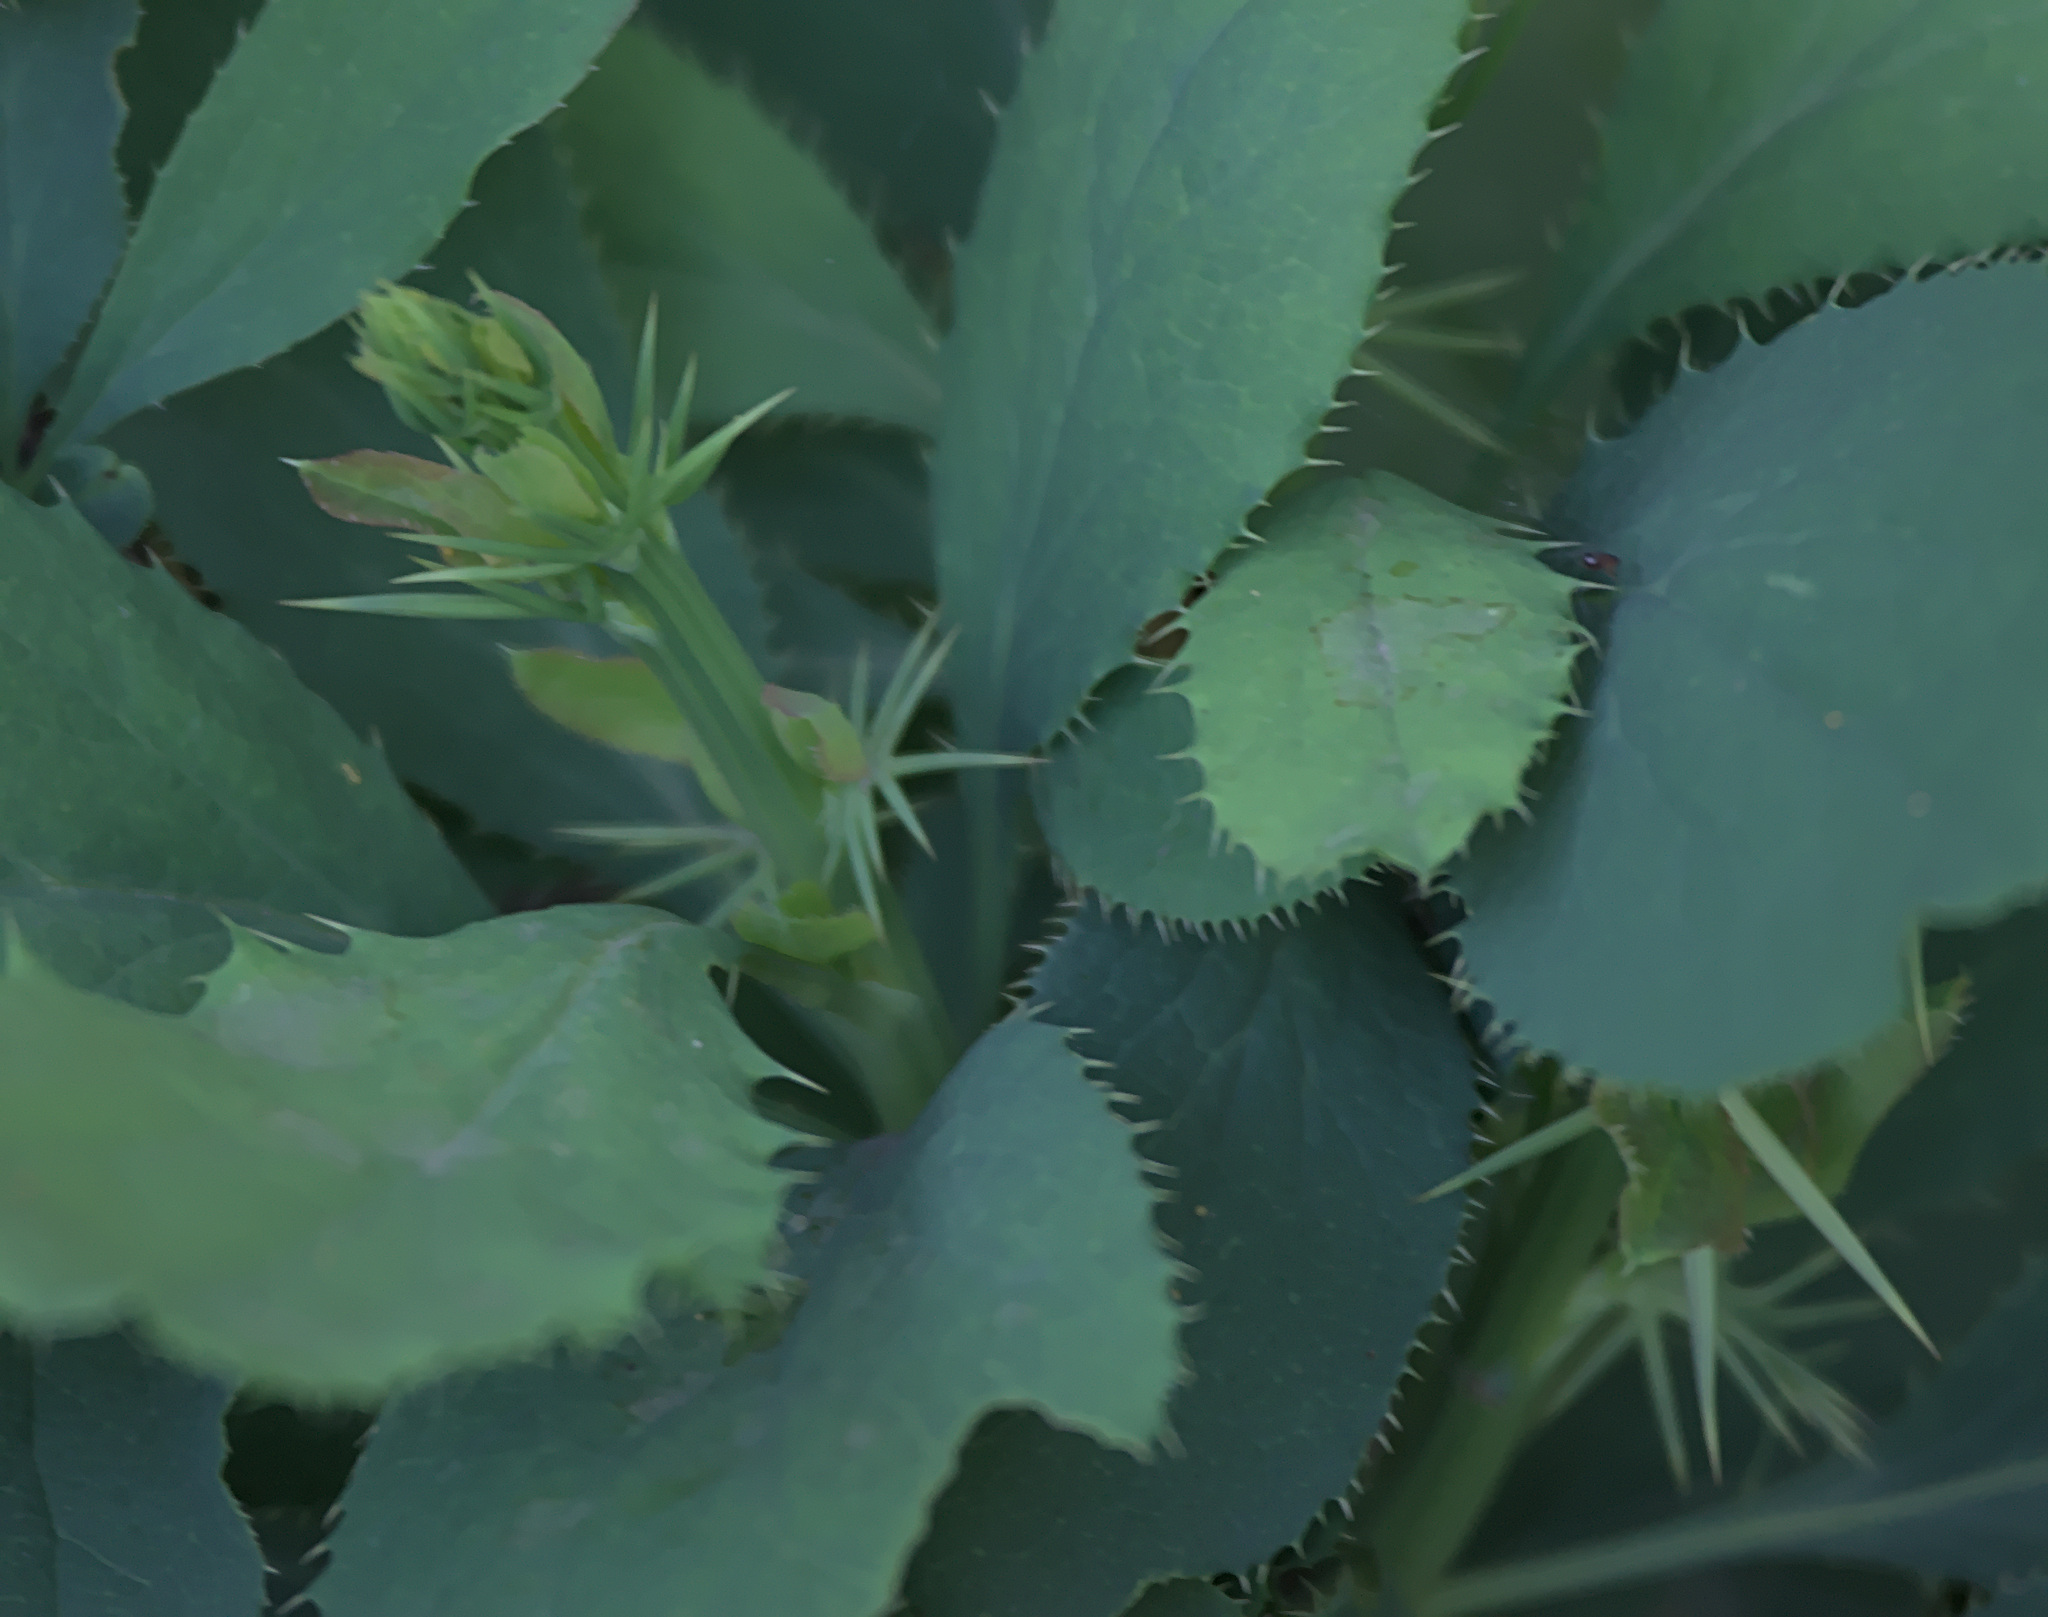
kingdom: Plantae
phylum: Tracheophyta
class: Magnoliopsida
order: Ranunculales
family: Berberidaceae
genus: Berberis
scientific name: Berberis vulgaris
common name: Barberry
